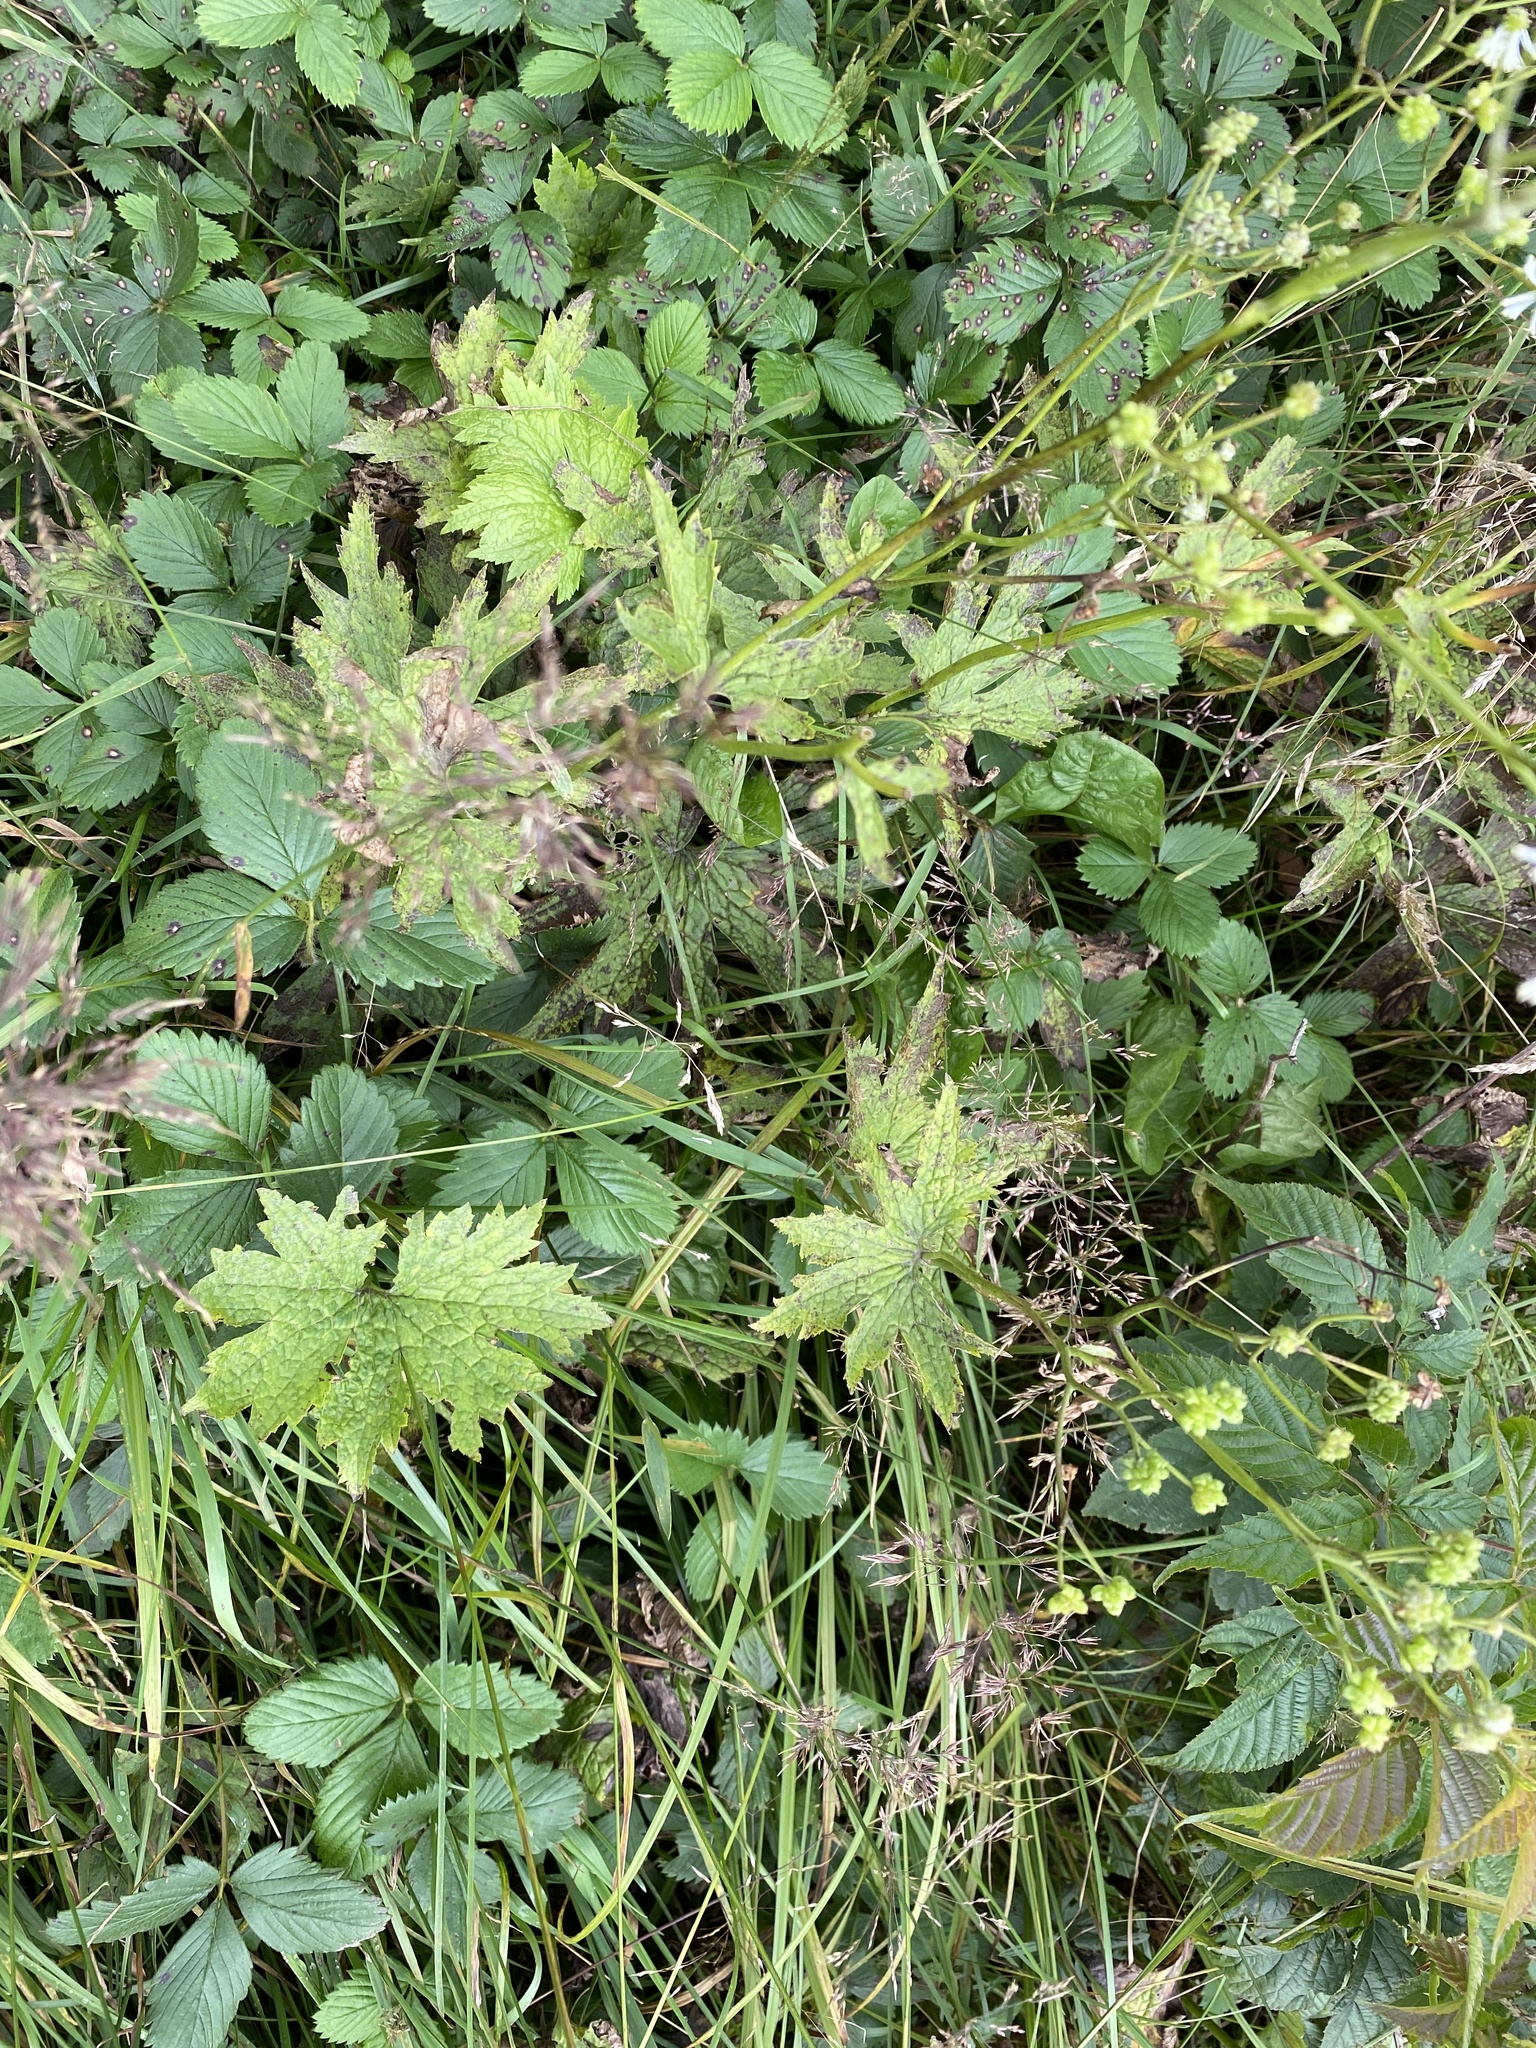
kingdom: Plantae
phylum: Tracheophyta
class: Magnoliopsida
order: Ranunculales
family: Ranunculaceae
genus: Trautvetteria
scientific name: Trautvetteria carolinensis
